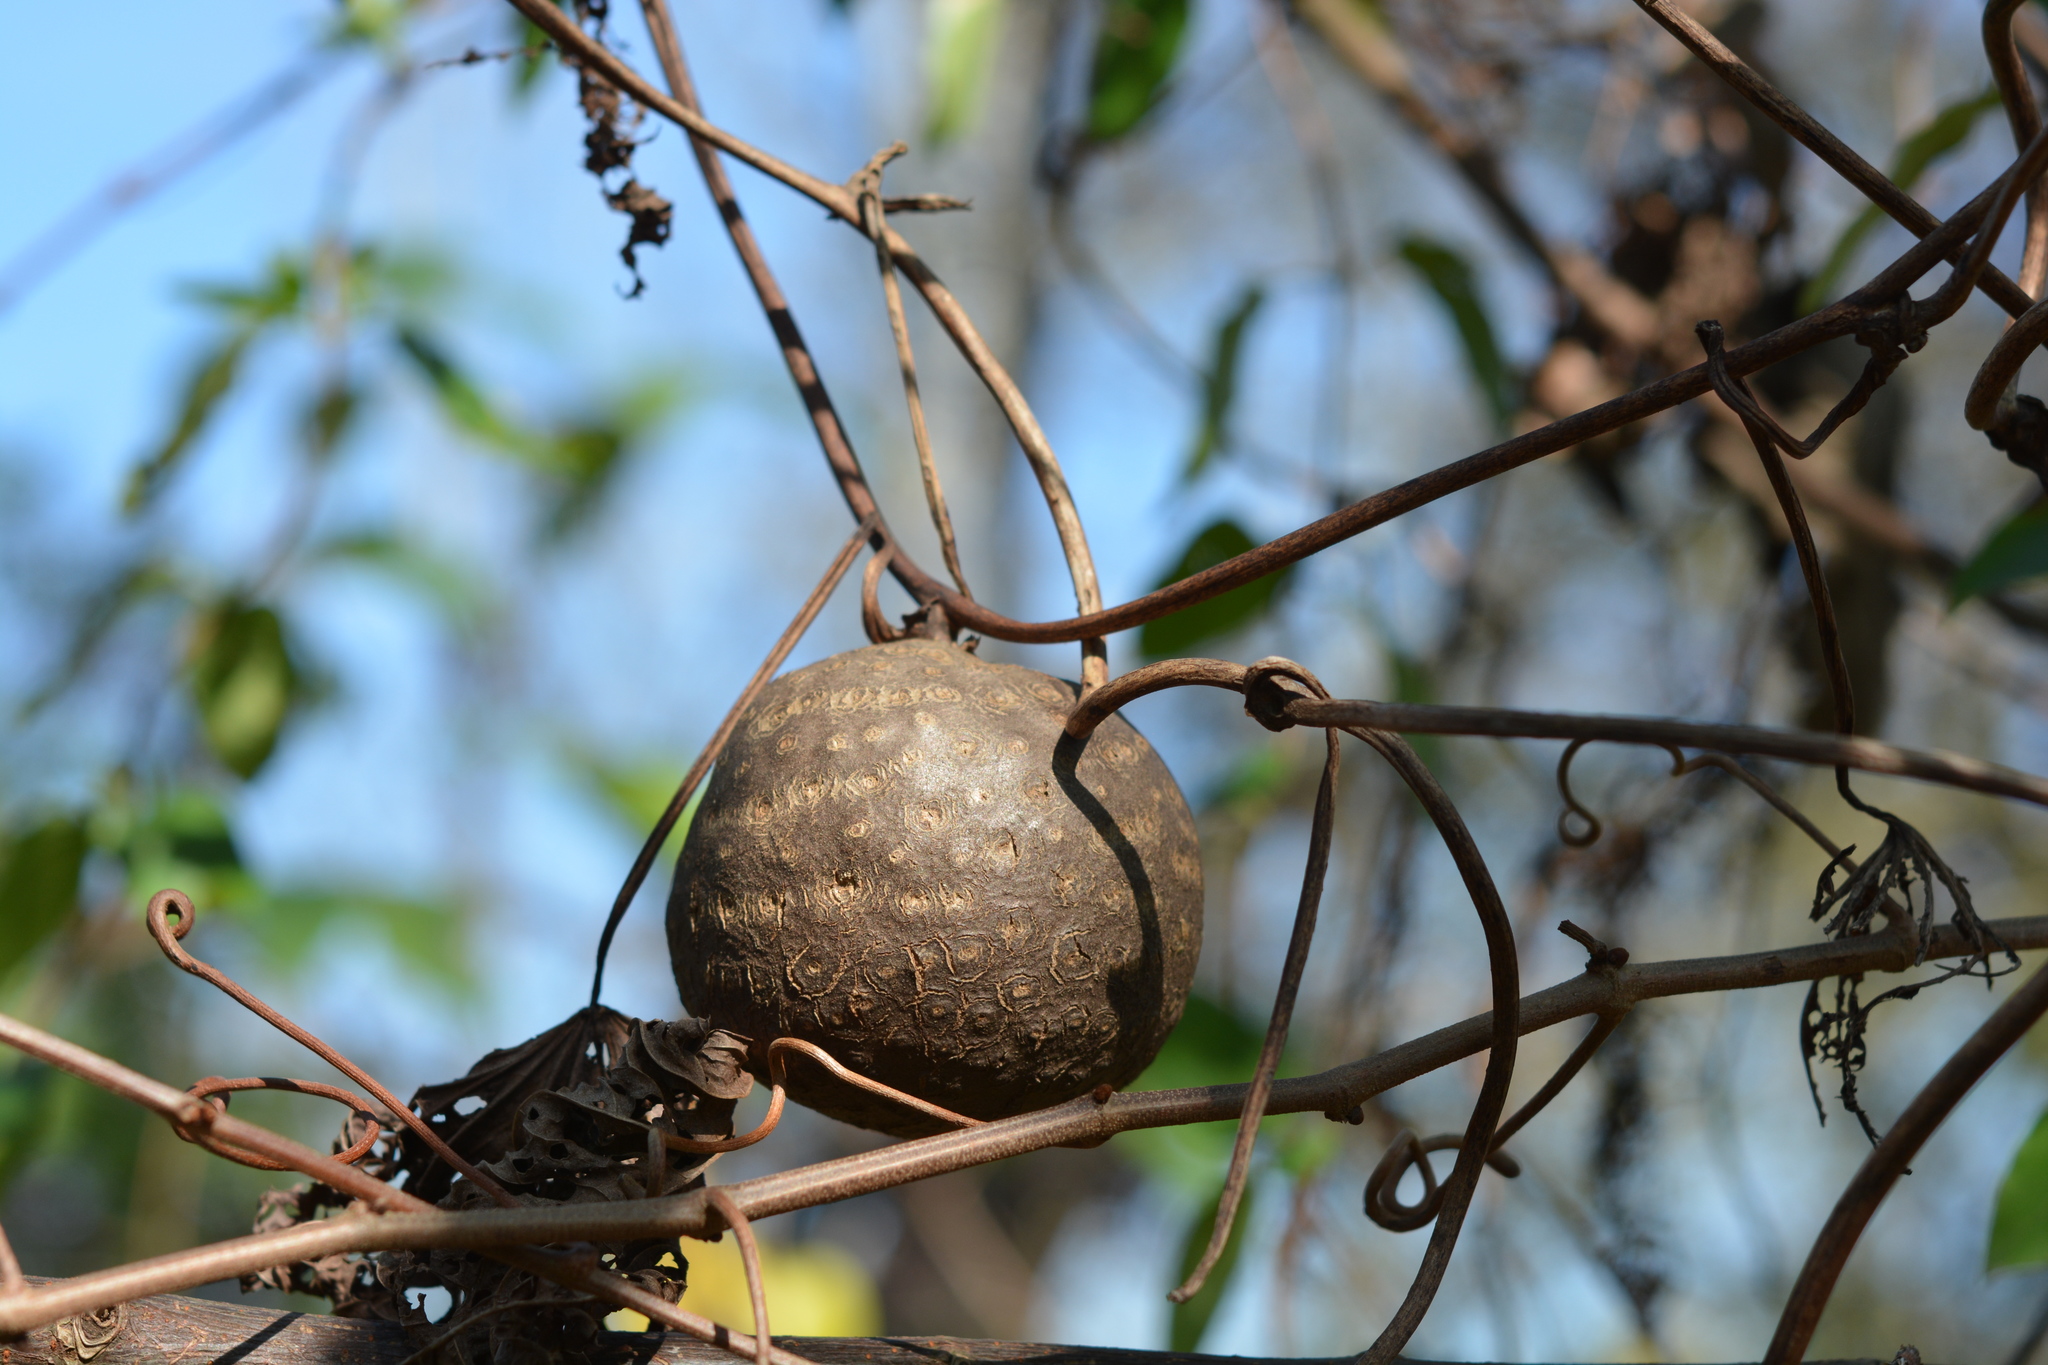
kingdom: Plantae
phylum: Tracheophyta
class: Liliopsida
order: Dioscoreales
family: Dioscoreaceae
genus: Dioscorea
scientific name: Dioscorea bulbifera
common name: Air yam
